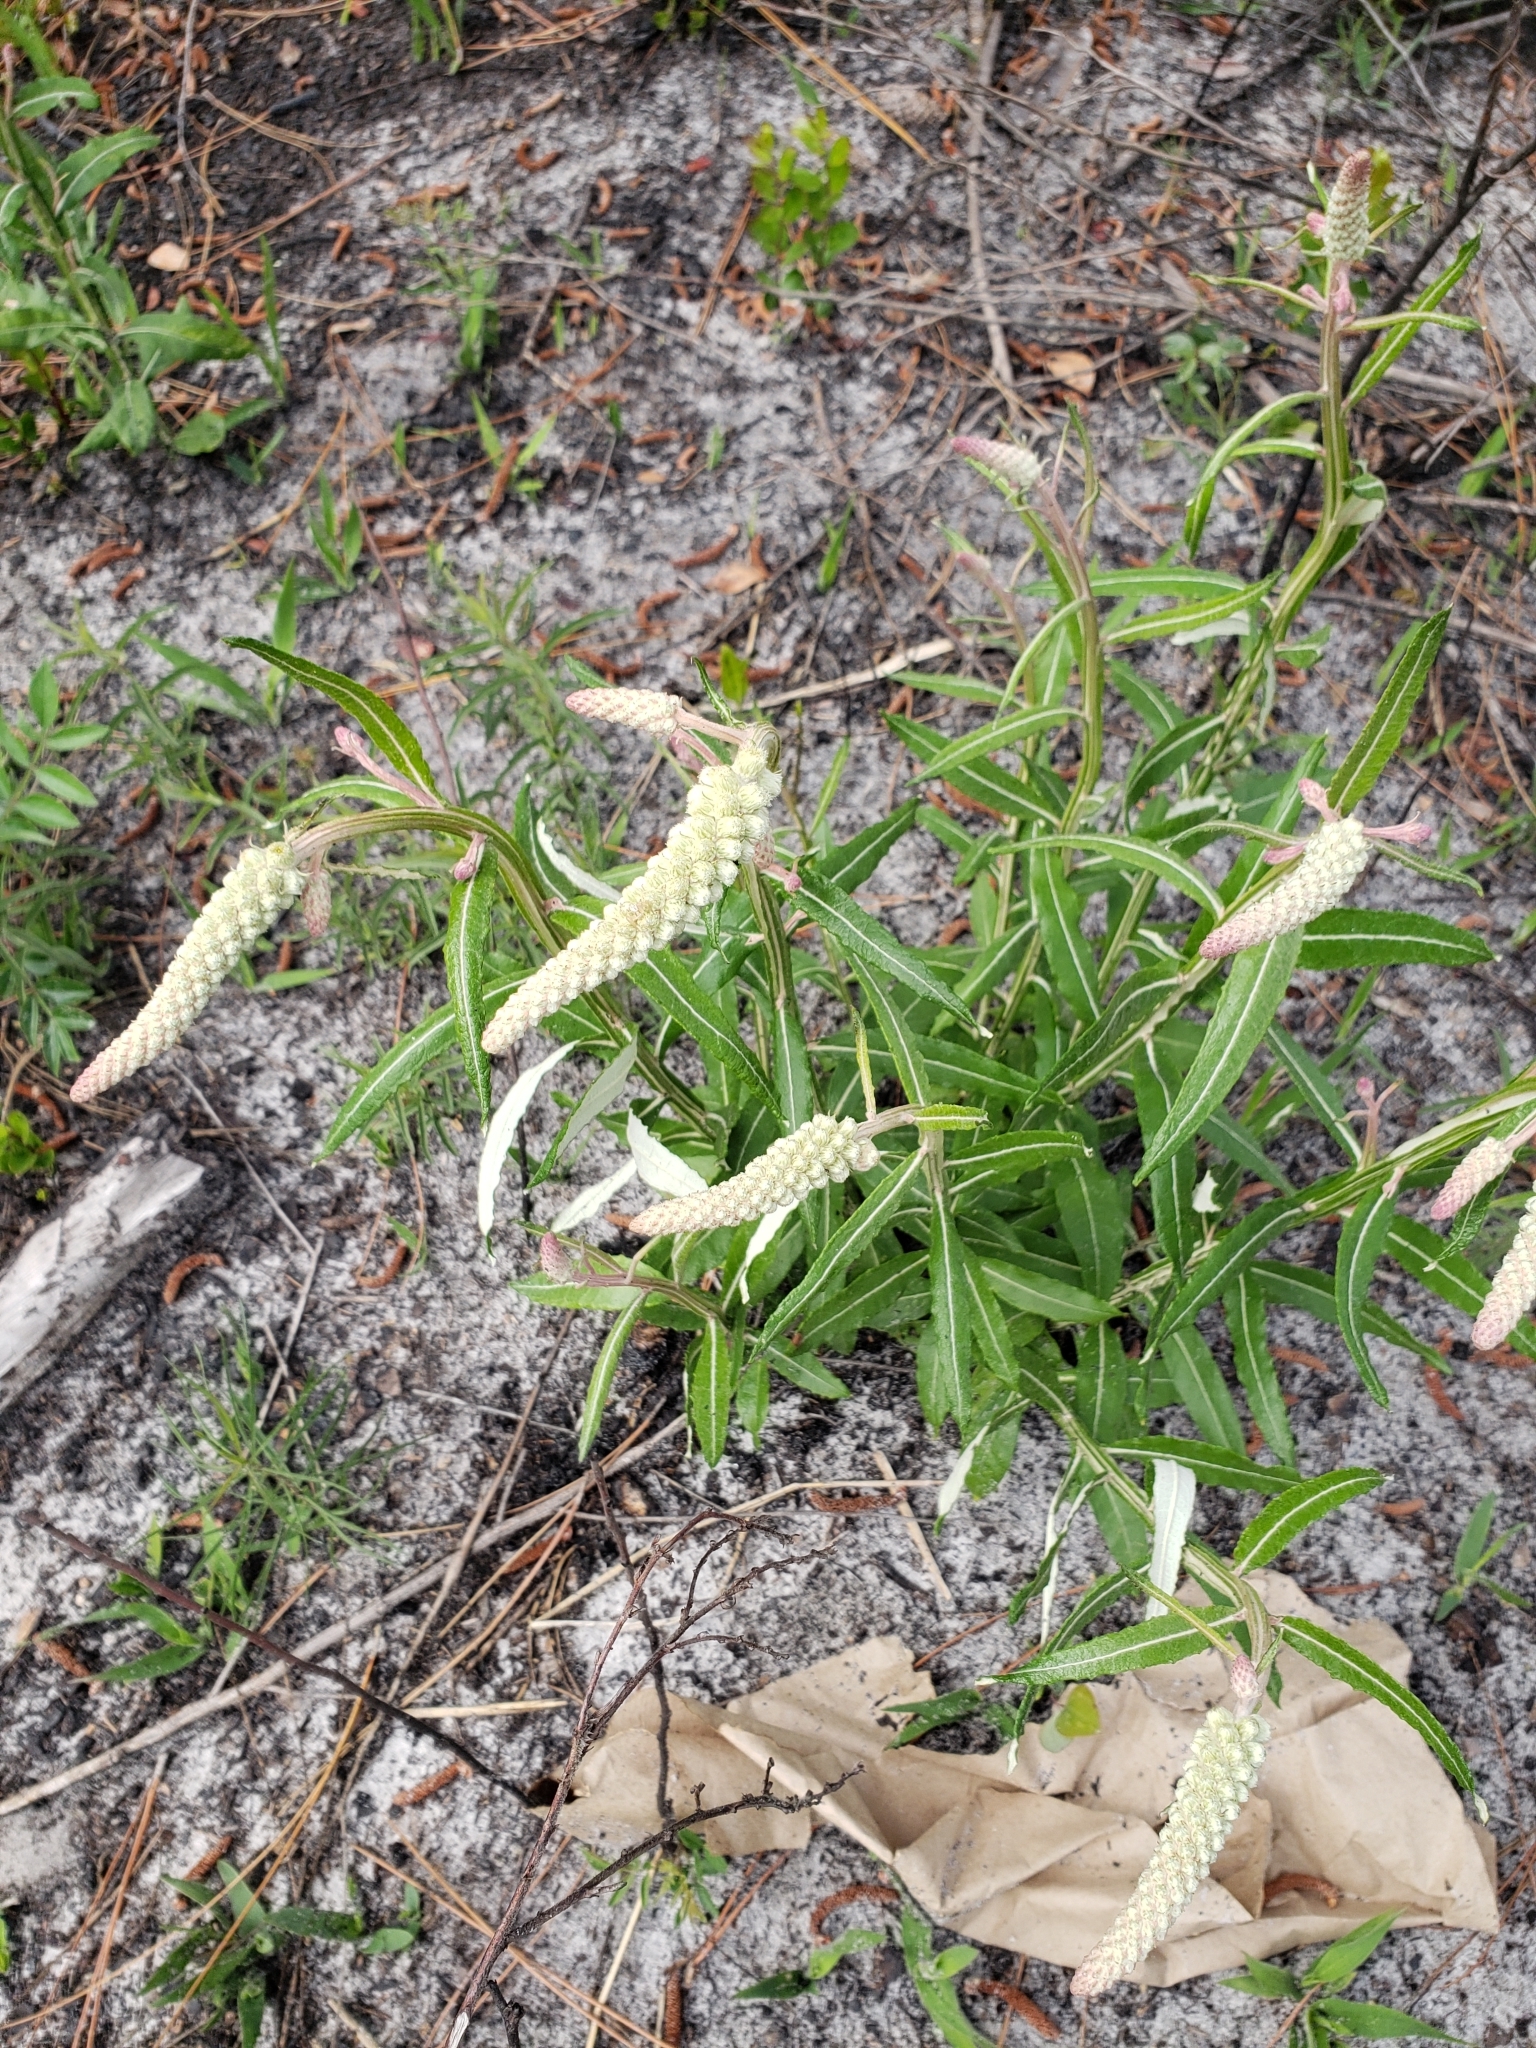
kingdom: Plantae
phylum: Tracheophyta
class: Magnoliopsida
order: Asterales
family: Asteraceae
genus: Pterocaulon
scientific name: Pterocaulon pycnostachyum
